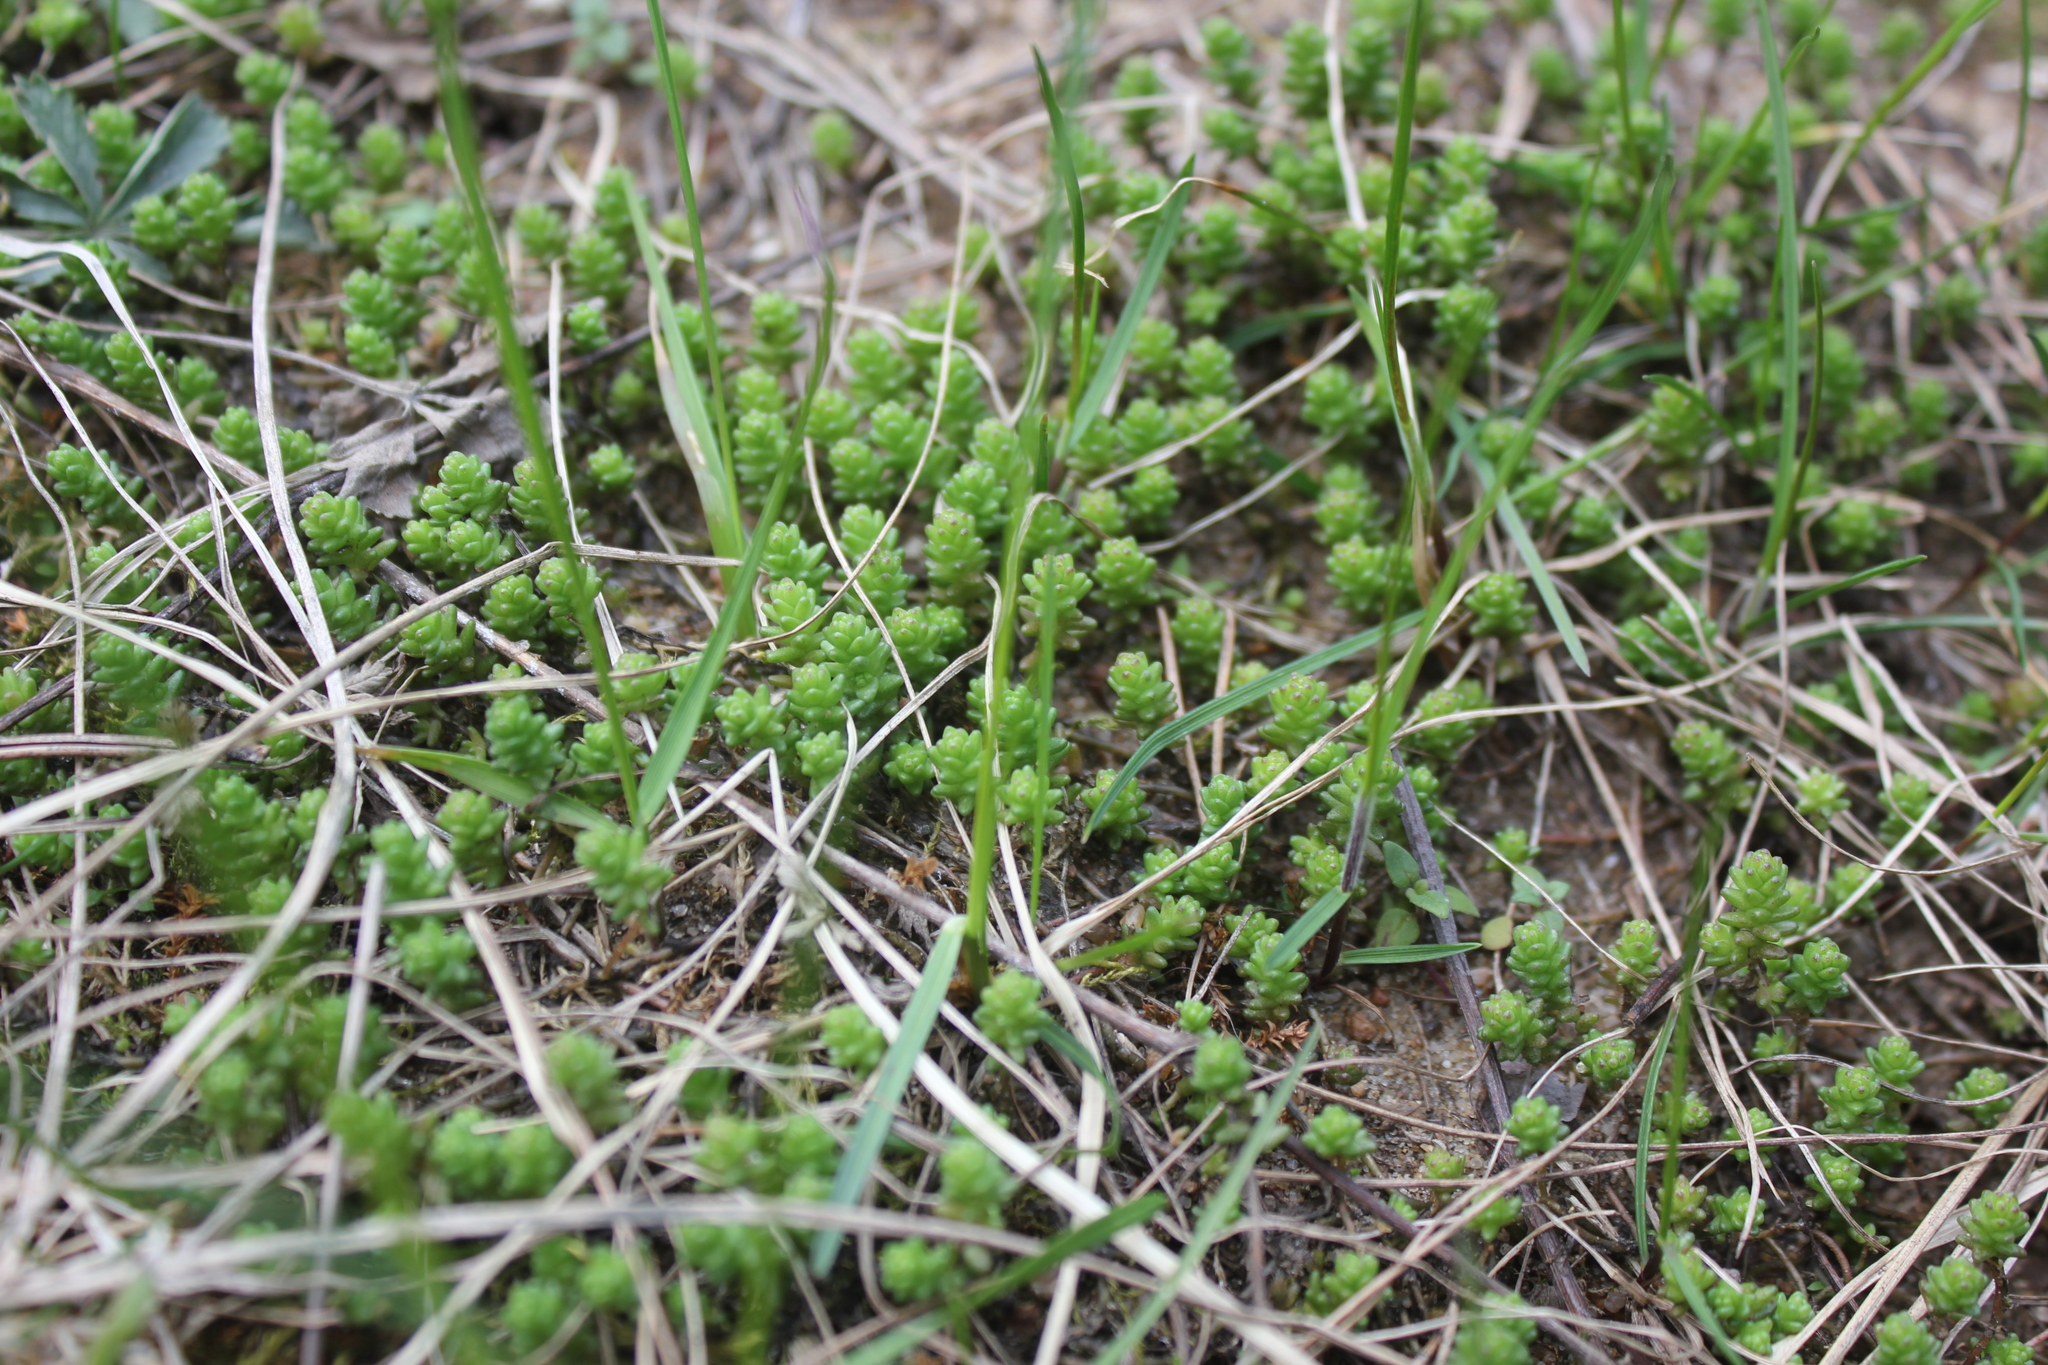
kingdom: Plantae
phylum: Tracheophyta
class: Magnoliopsida
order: Saxifragales
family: Crassulaceae
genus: Sedum
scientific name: Sedum acre
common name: Biting stonecrop
